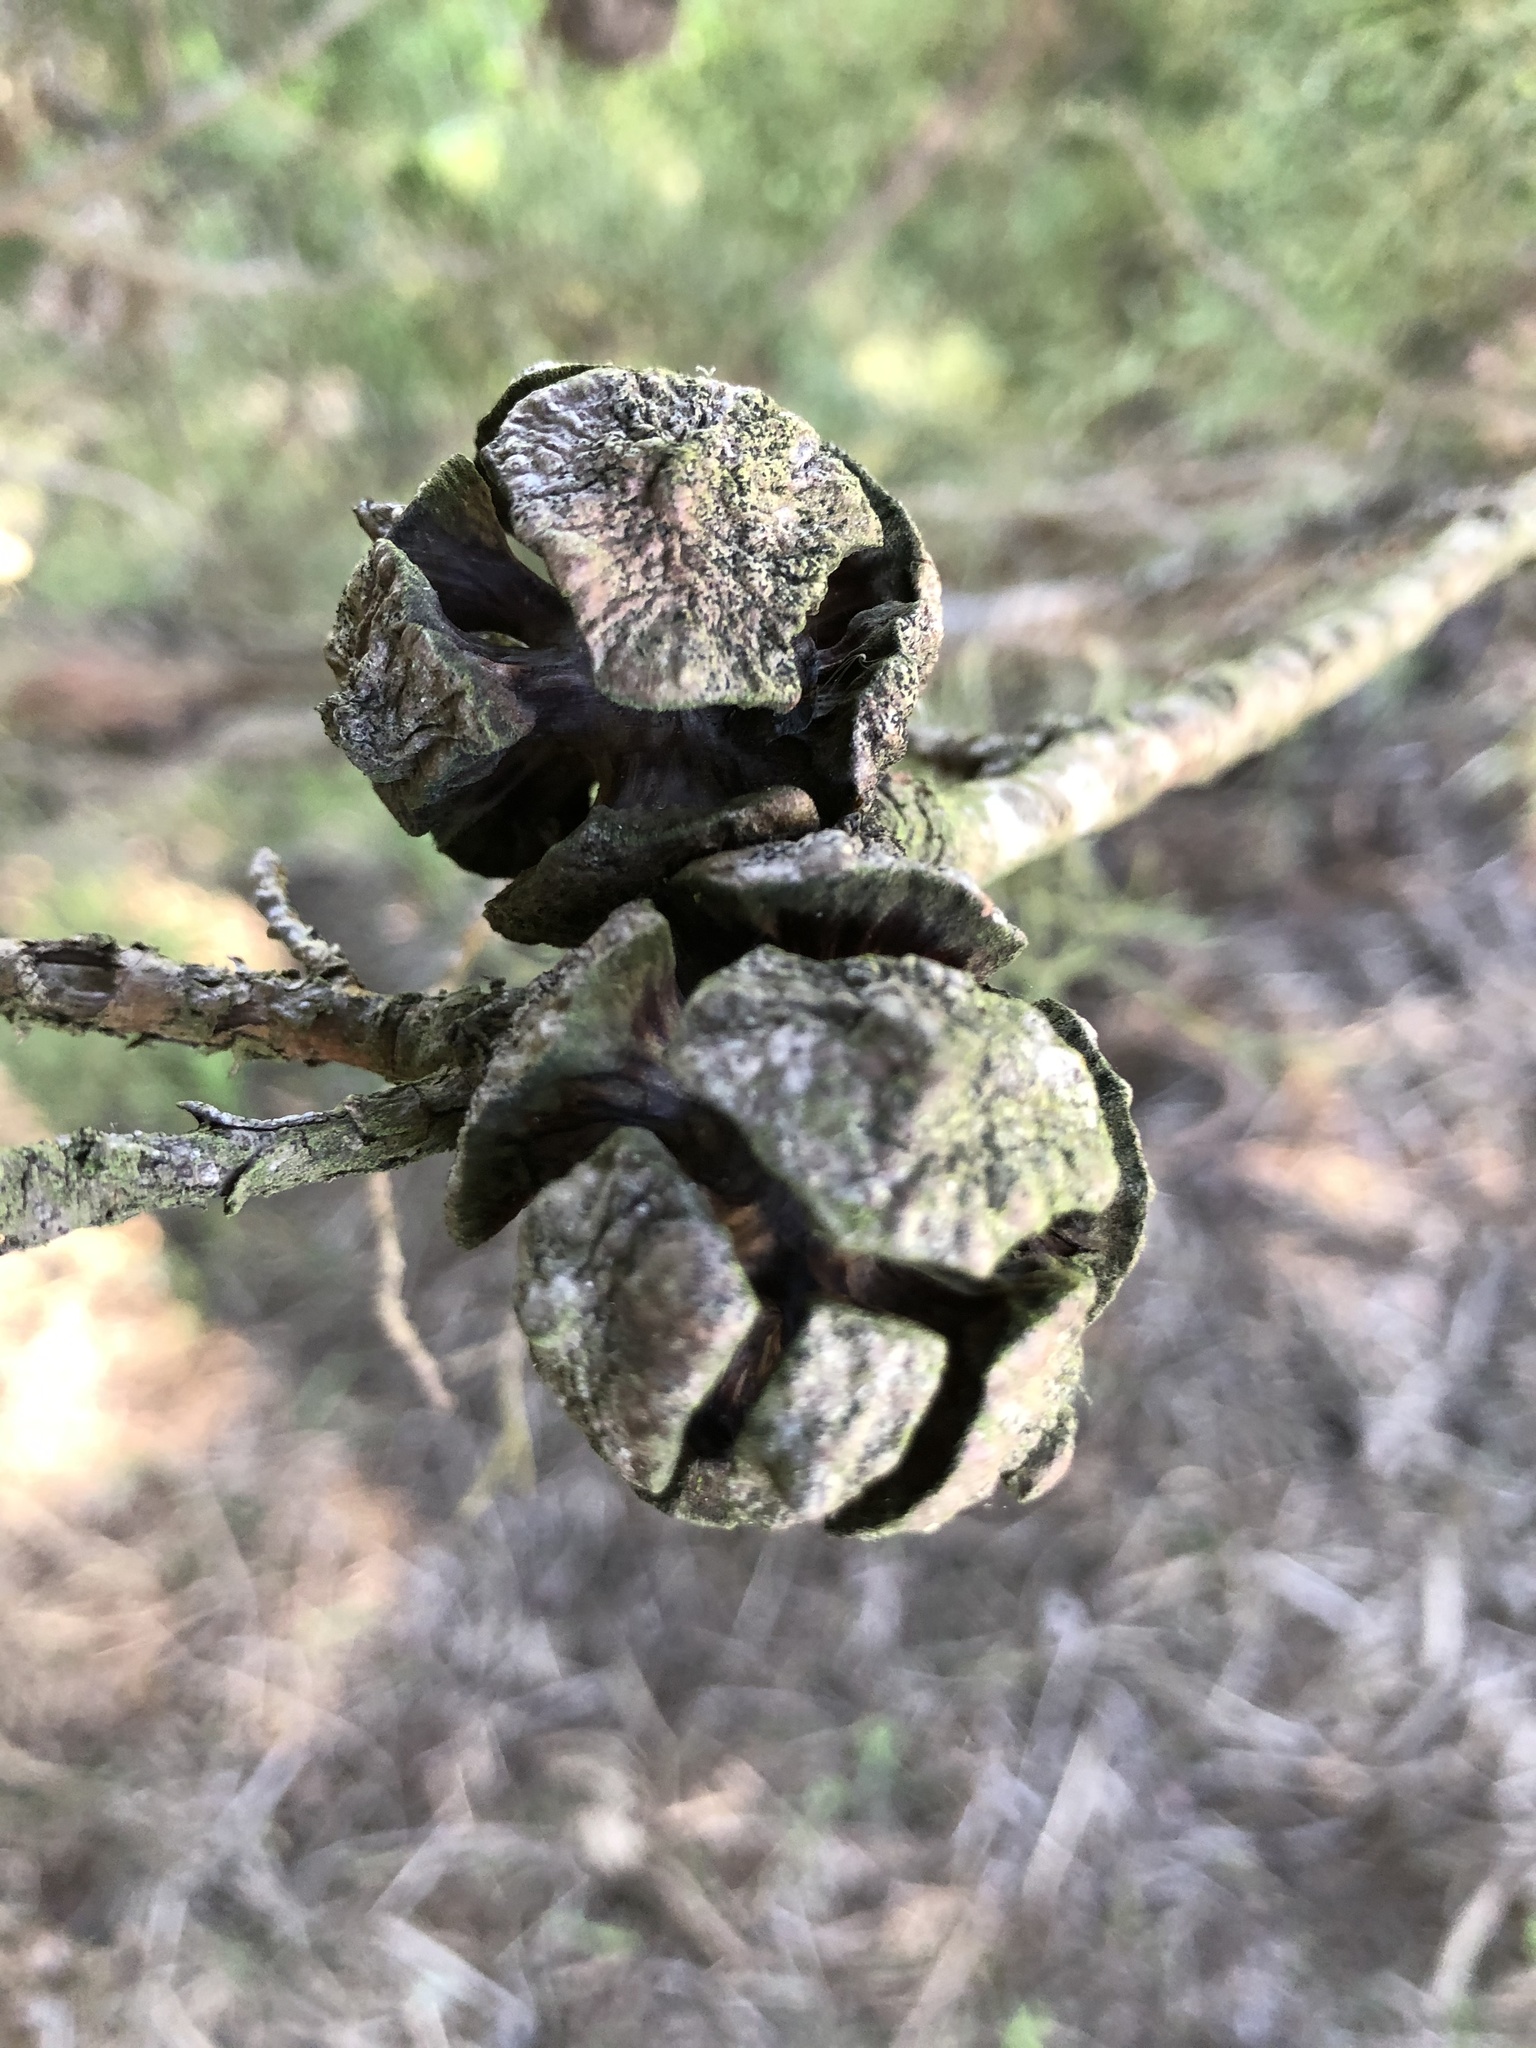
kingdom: Plantae
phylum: Tracheophyta
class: Pinopsida
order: Pinales
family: Cupressaceae
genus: Cupressus
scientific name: Cupressus macrocarpa
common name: Monterey cypress
